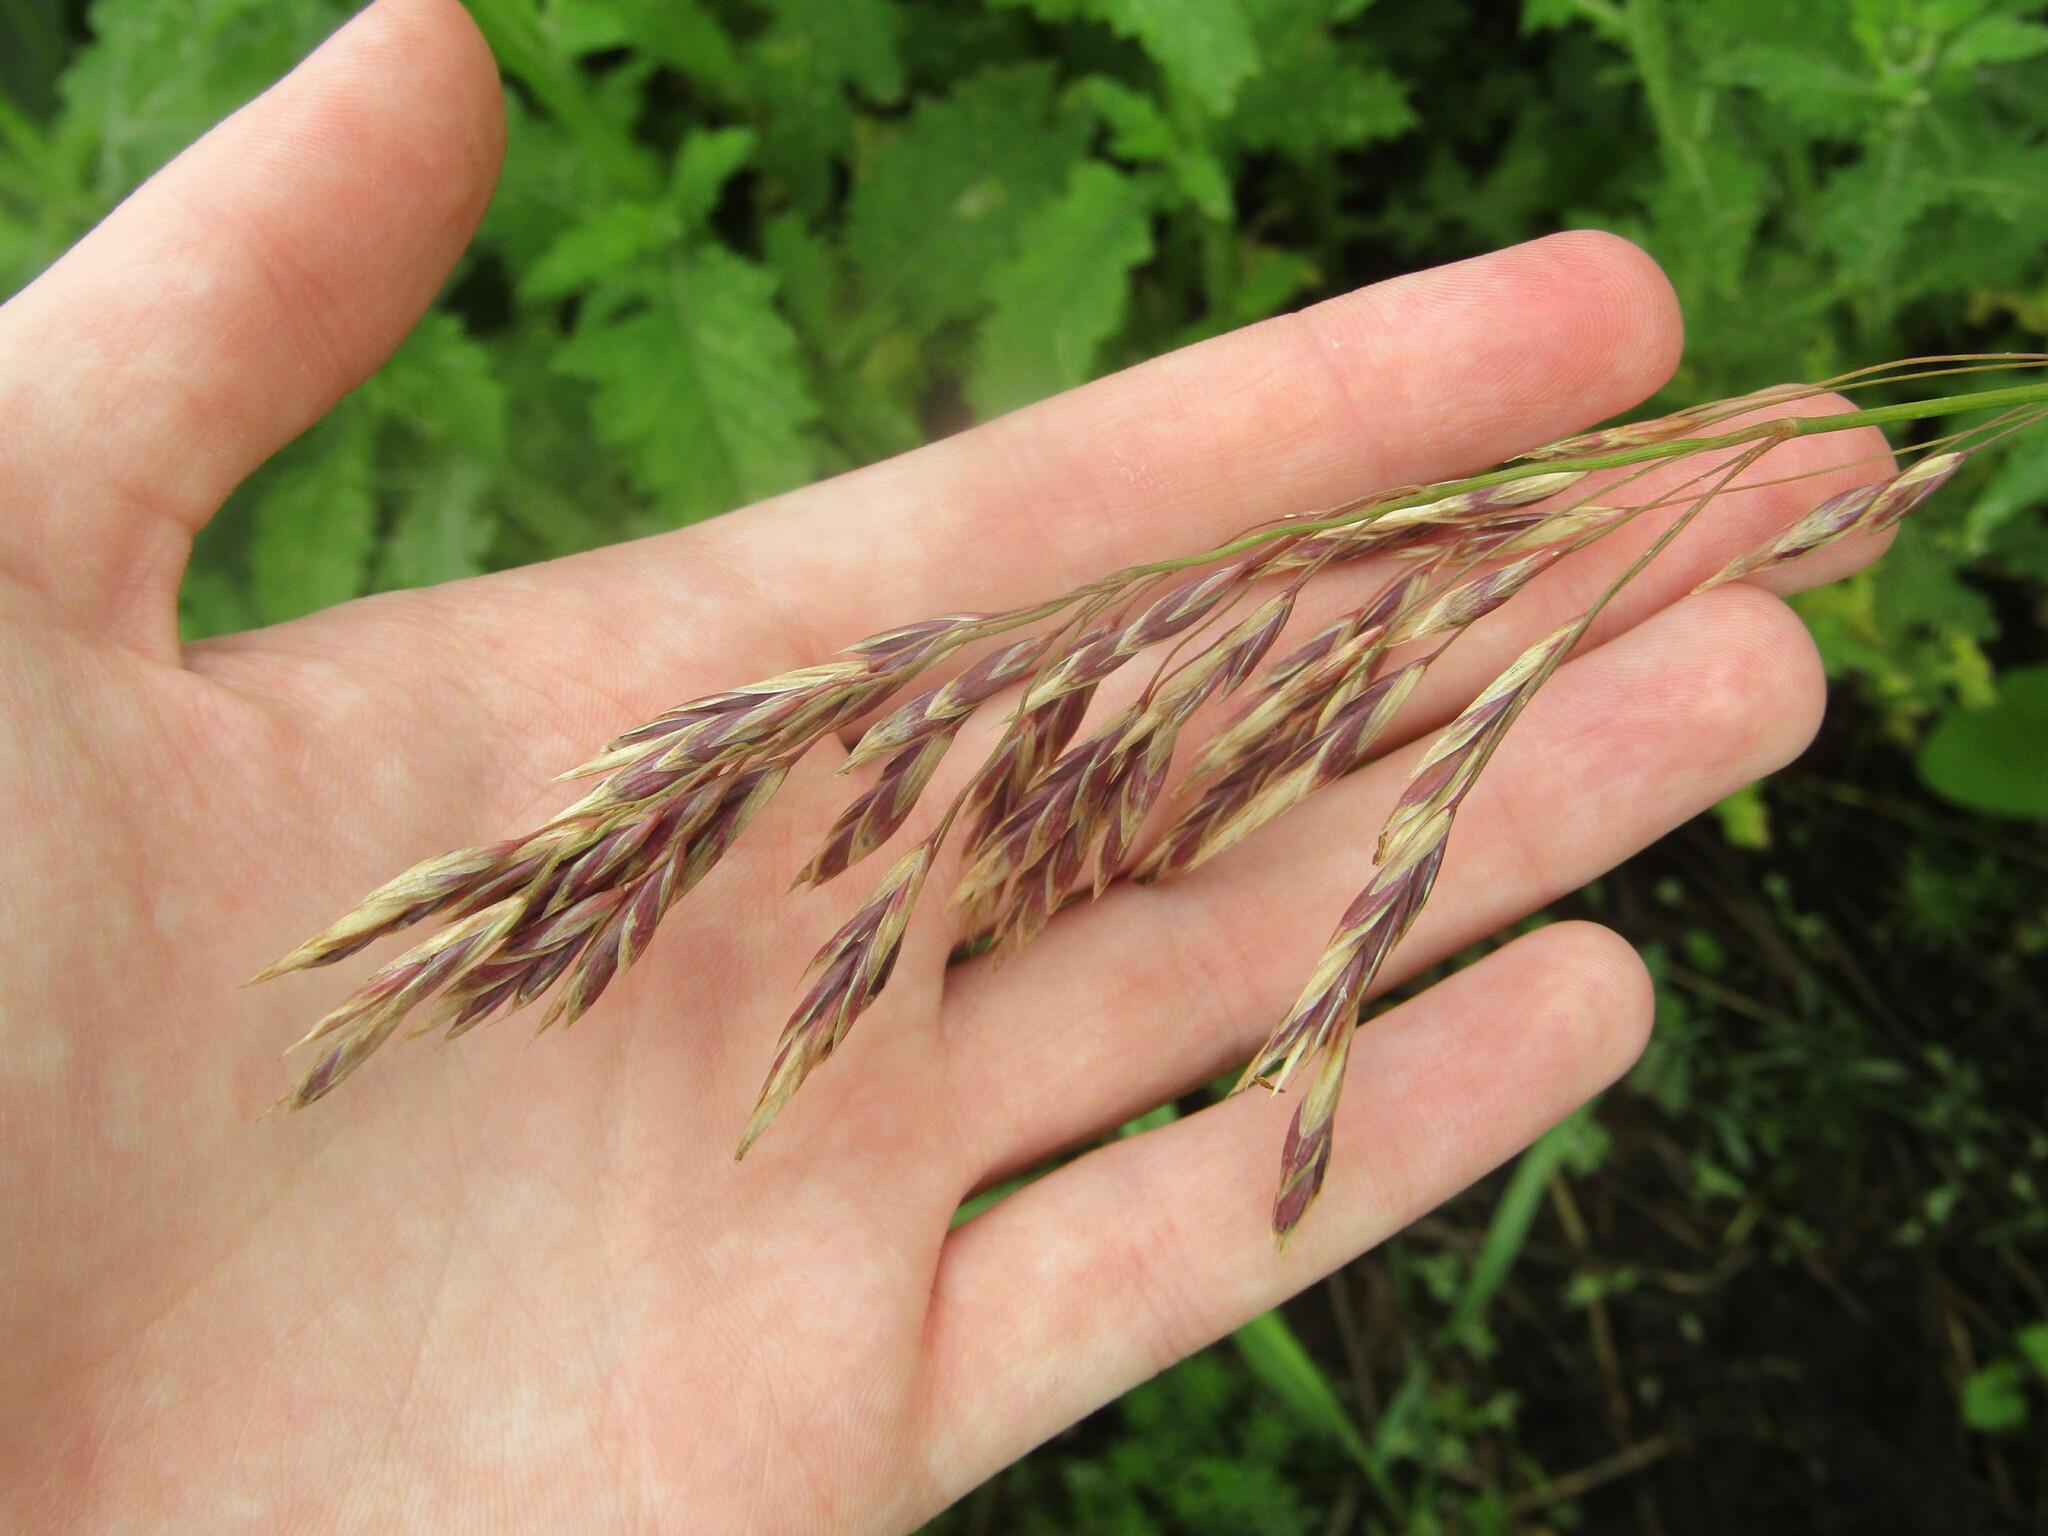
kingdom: Plantae
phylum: Tracheophyta
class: Liliopsida
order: Poales
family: Poaceae
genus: Bromus
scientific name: Bromus inermis
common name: Smooth brome
